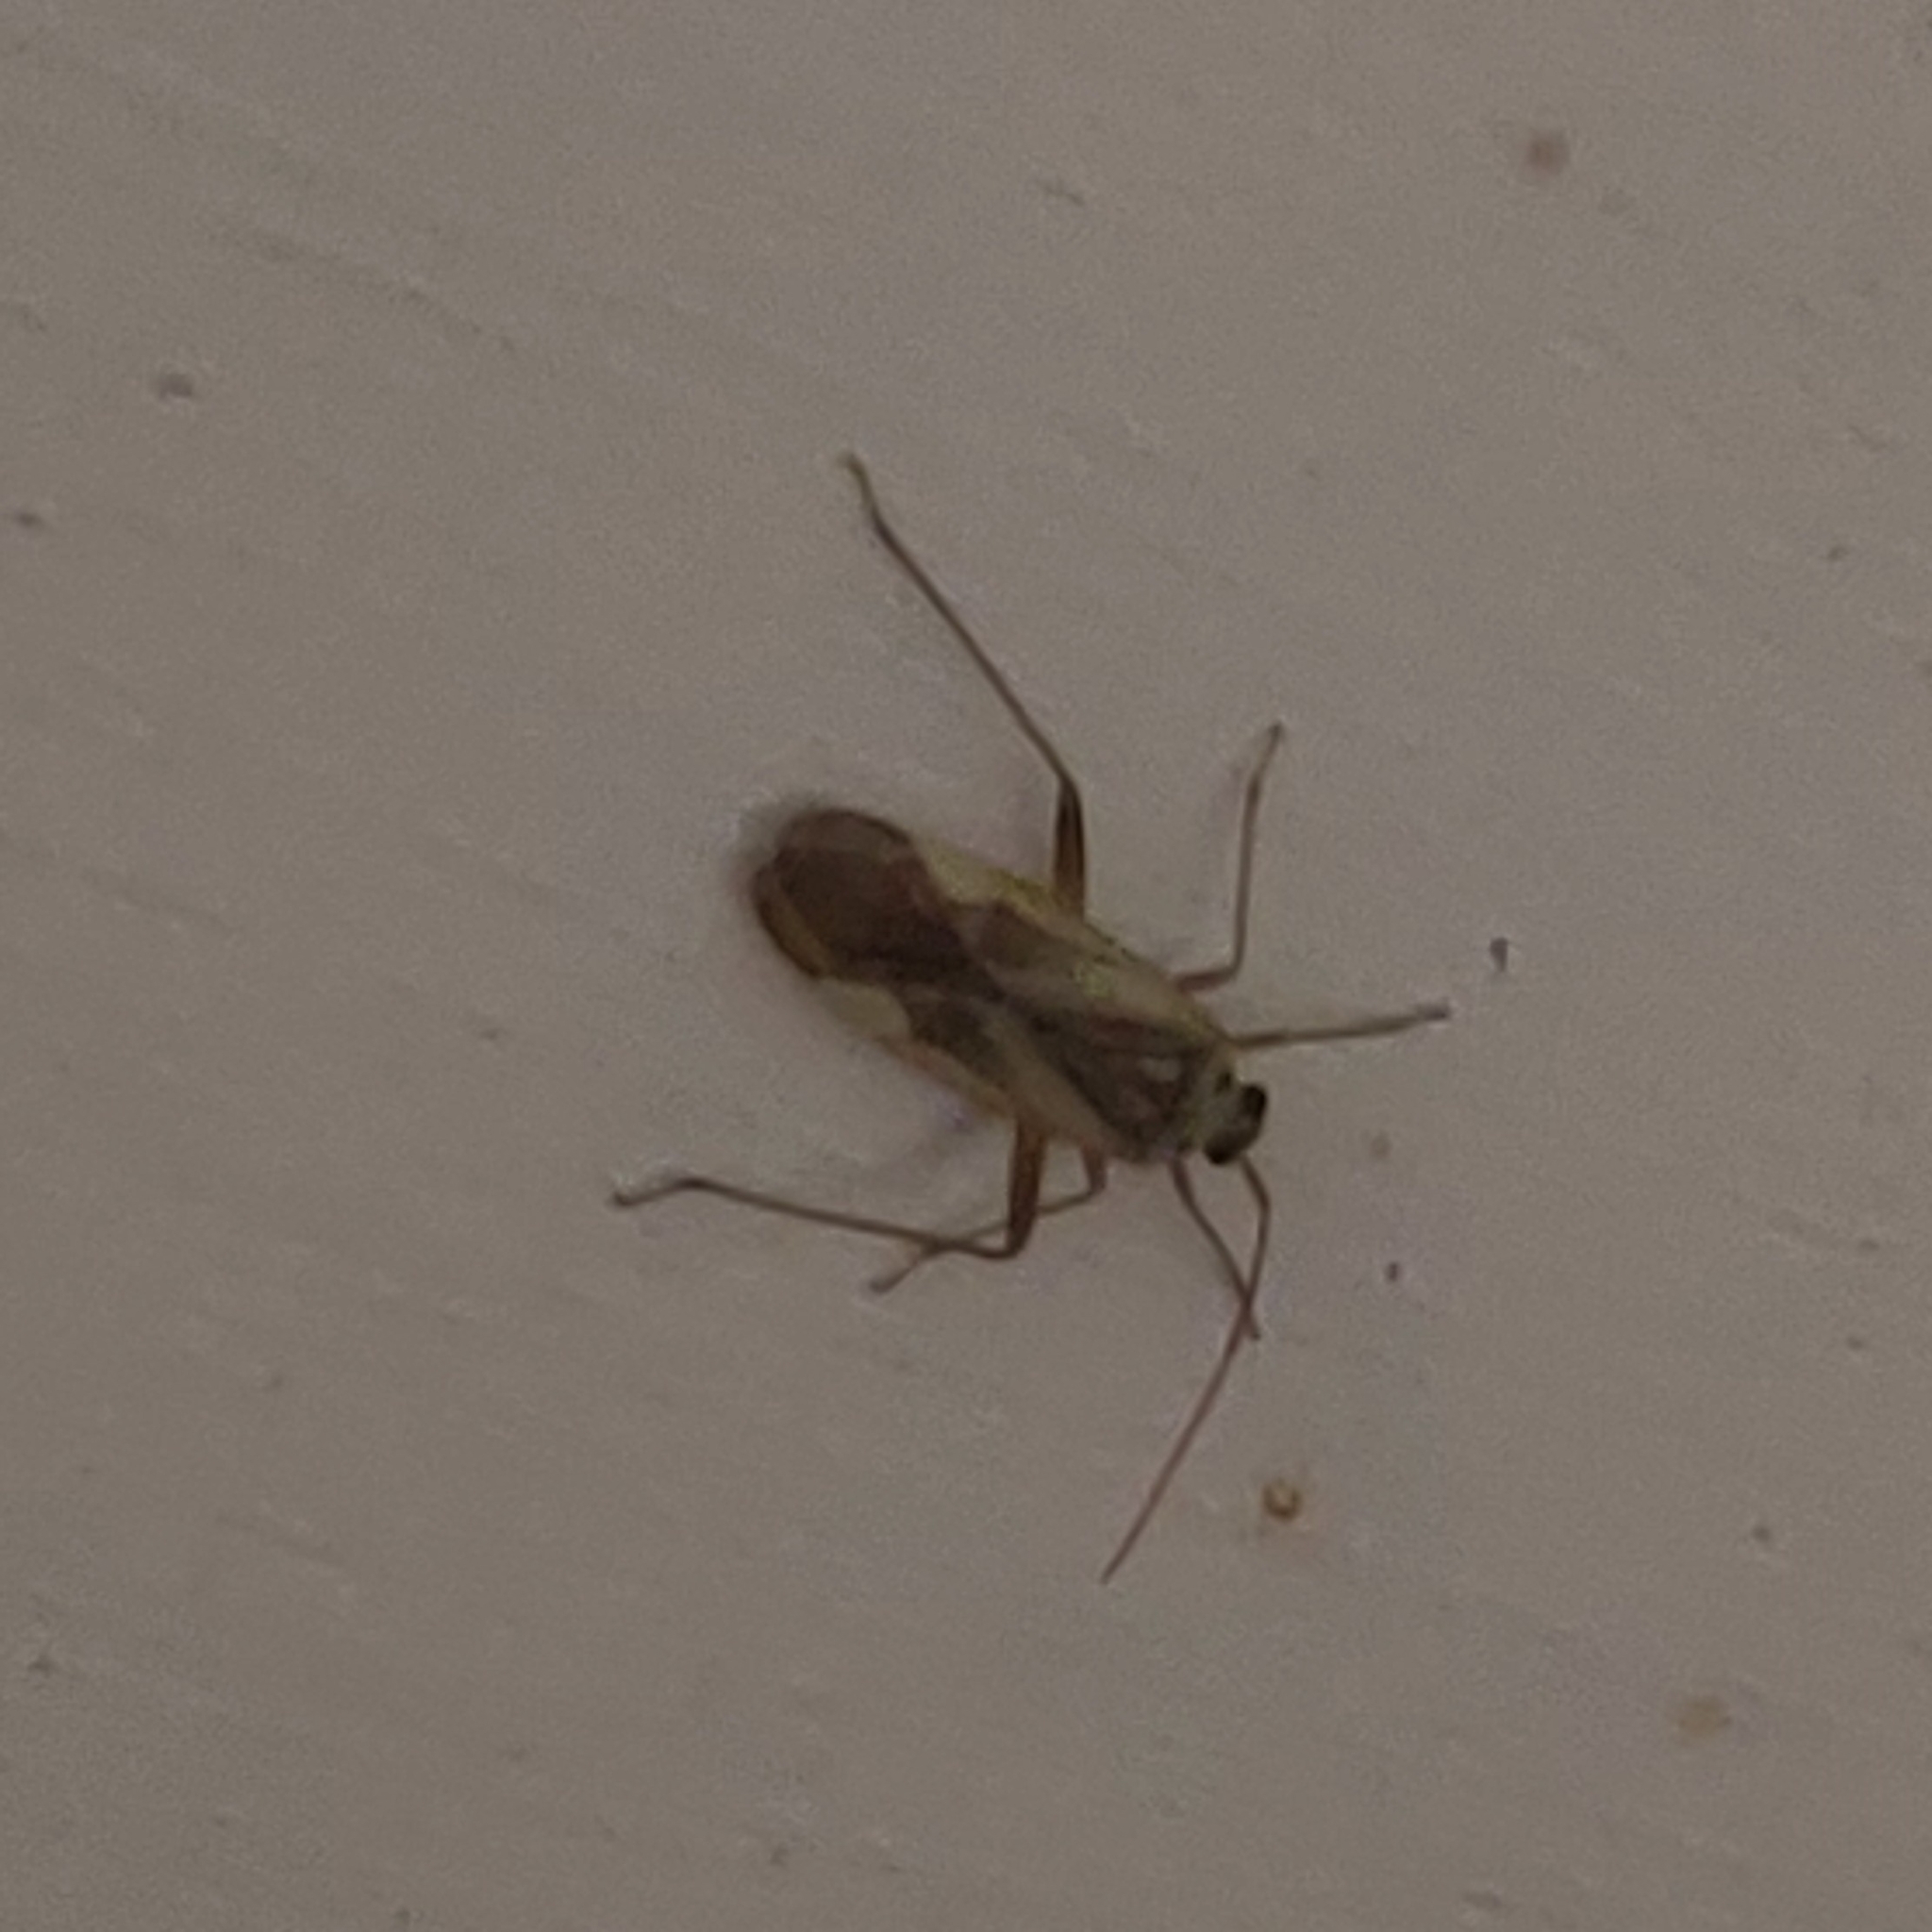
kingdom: Animalia
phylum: Arthropoda
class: Insecta
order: Hemiptera
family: Miridae
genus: Adelphocoris
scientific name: Adelphocoris lineolatus
